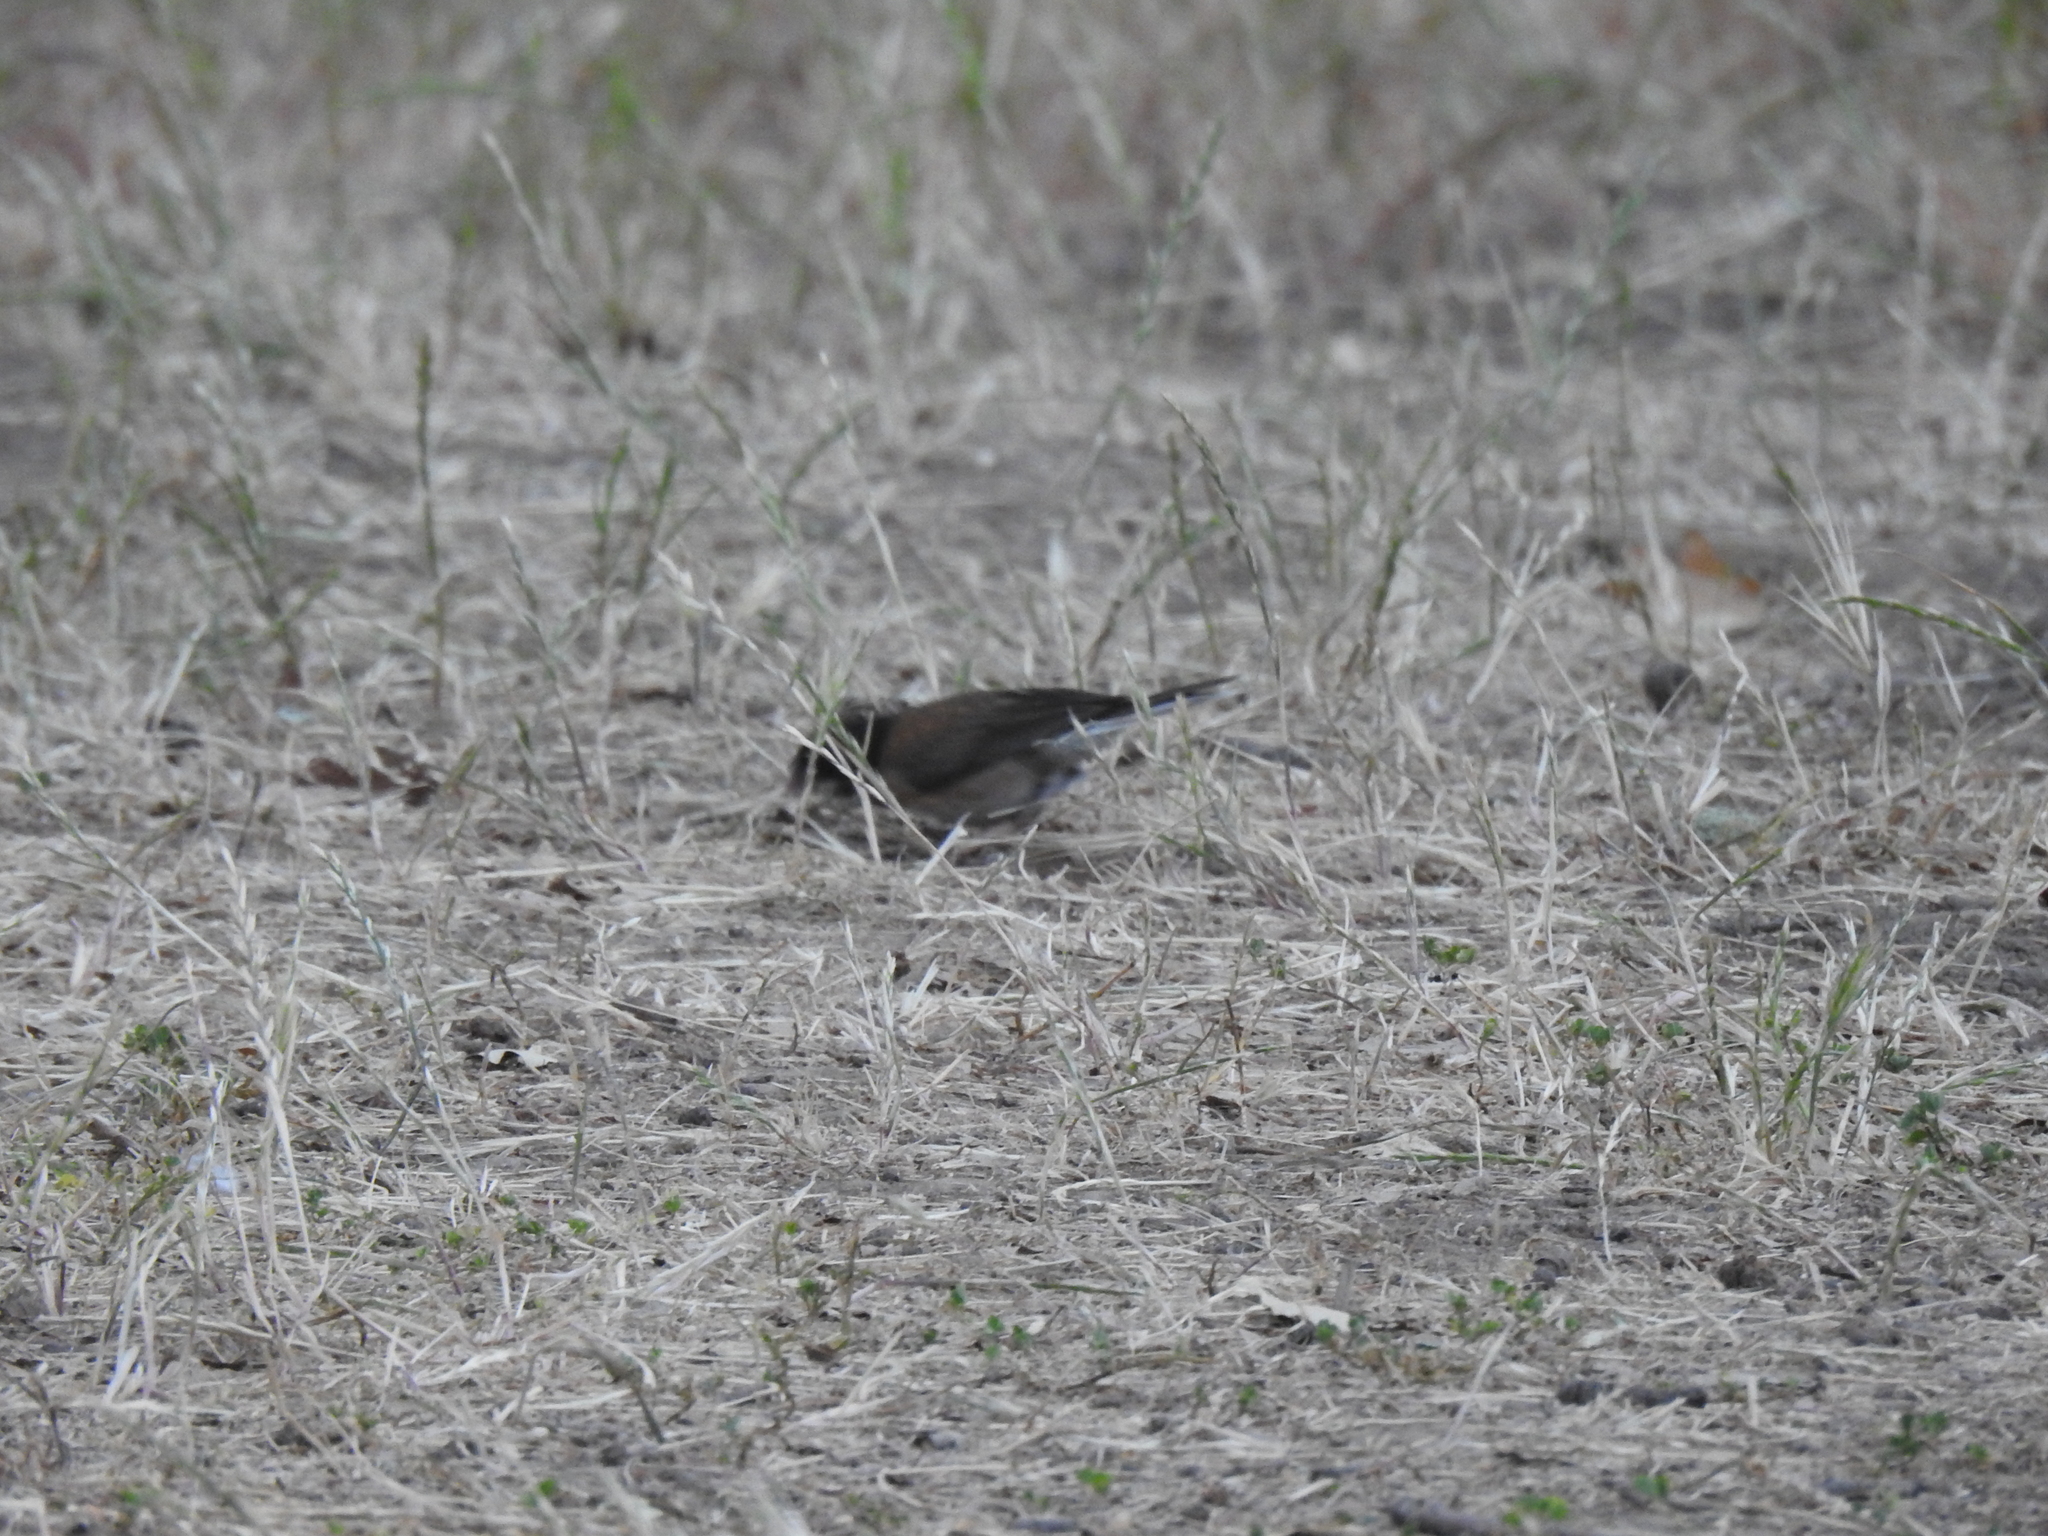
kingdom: Animalia
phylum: Chordata
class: Aves
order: Passeriformes
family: Passerellidae
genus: Junco
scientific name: Junco hyemalis
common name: Dark-eyed junco
